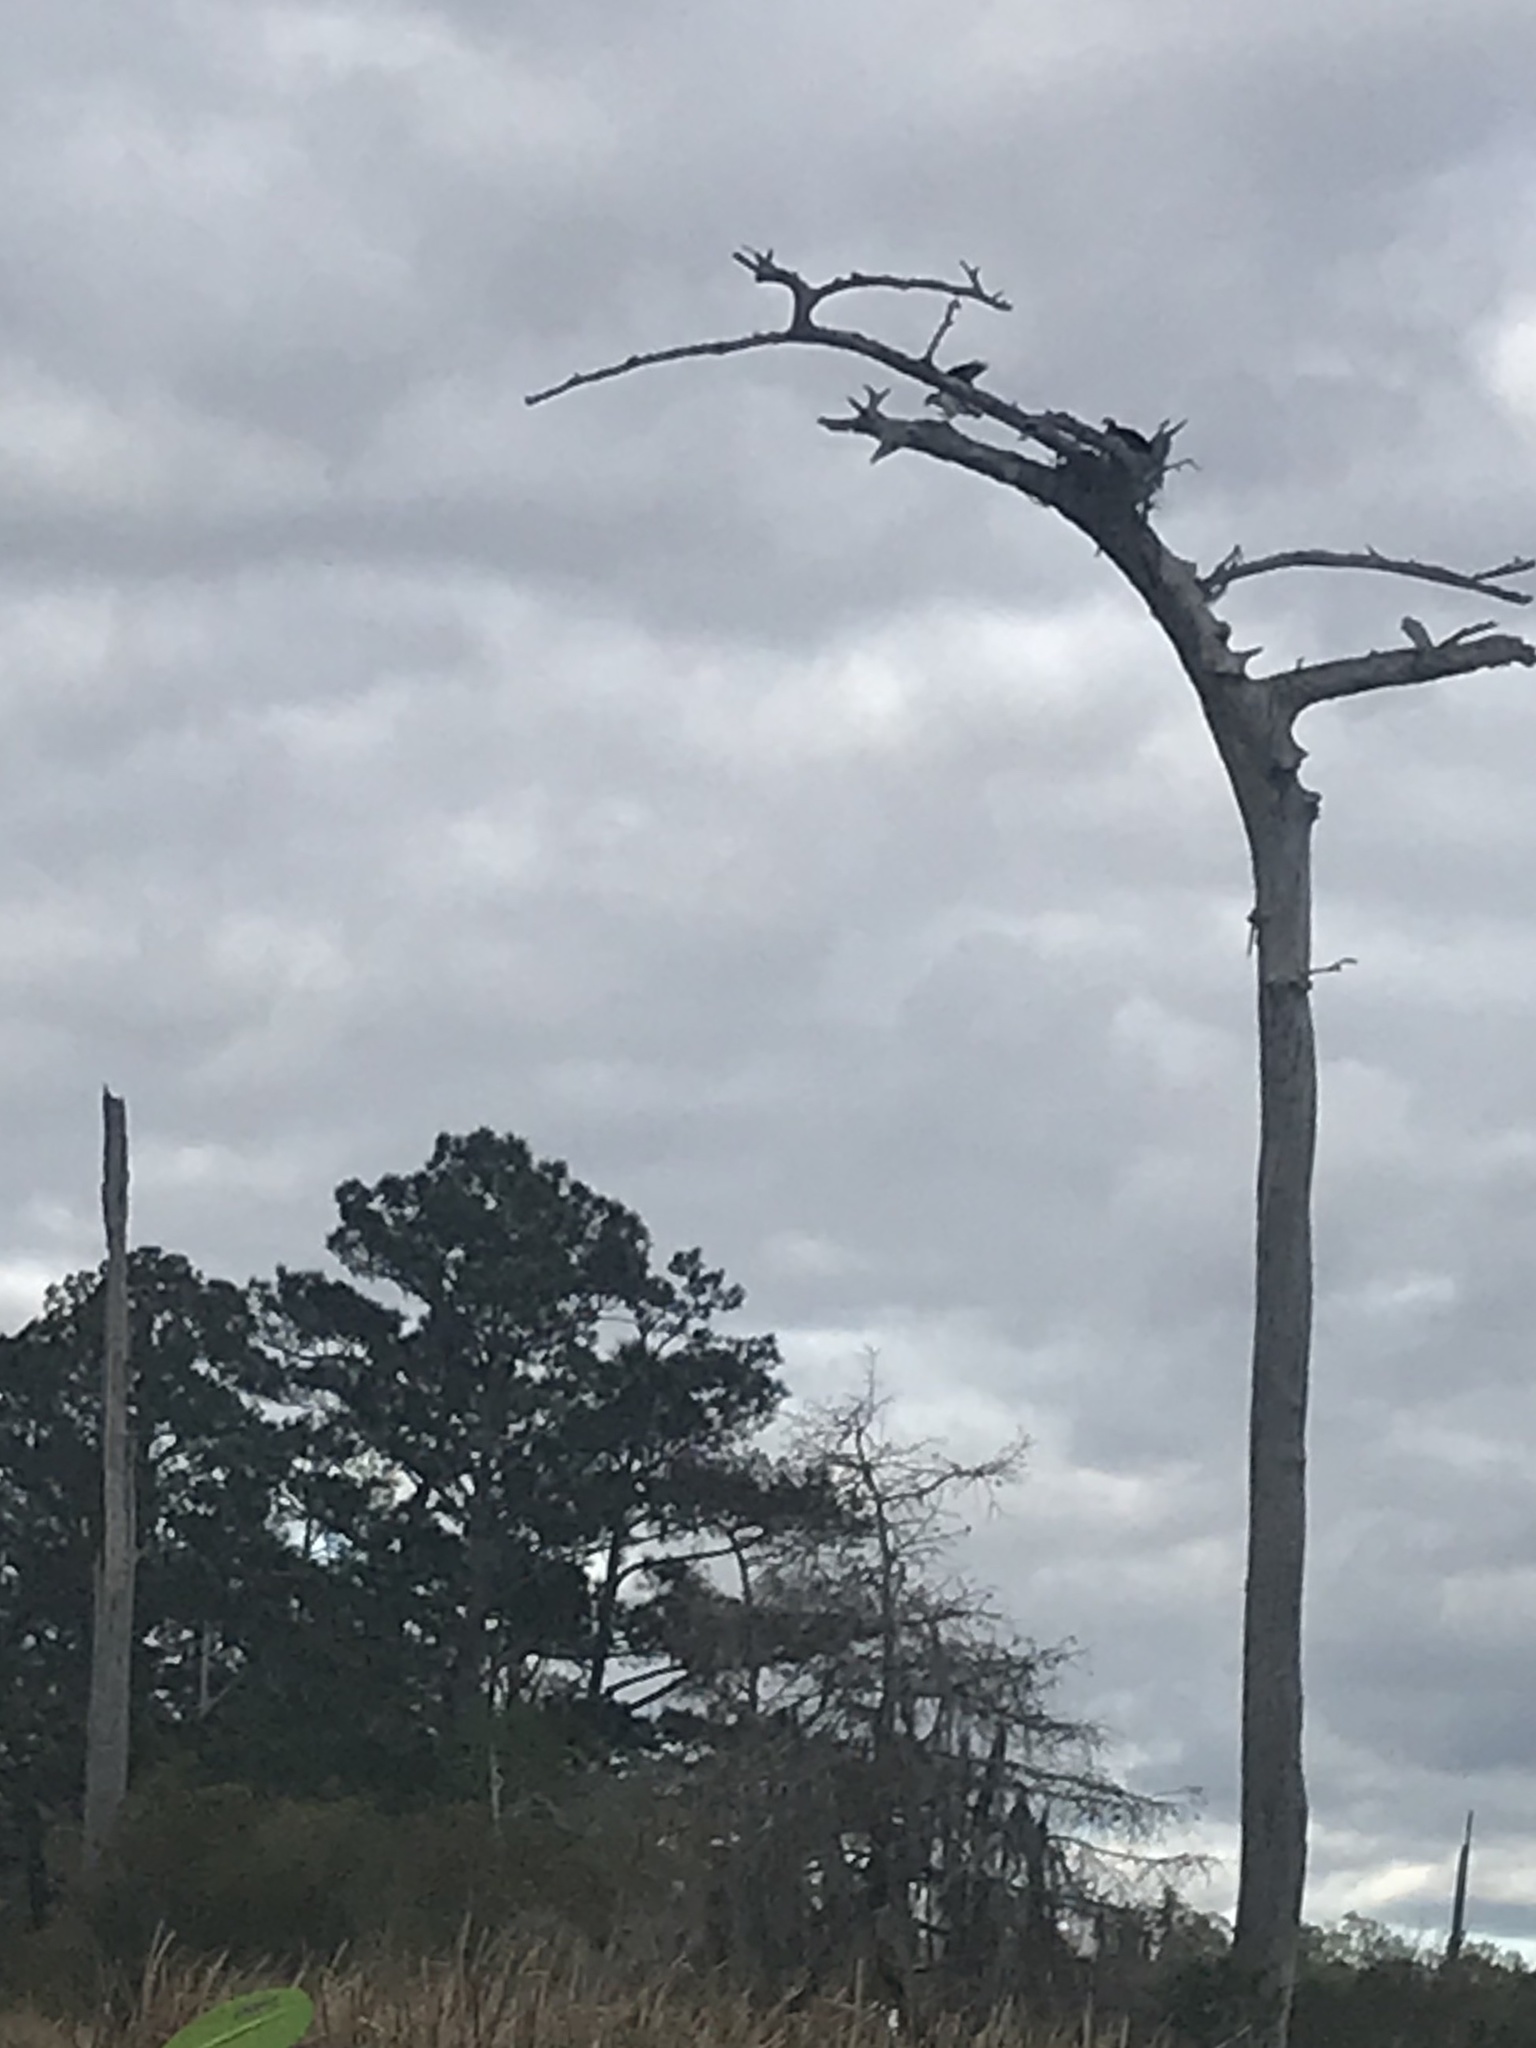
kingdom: Animalia
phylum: Chordata
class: Aves
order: Accipitriformes
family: Pandionidae
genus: Pandion
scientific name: Pandion haliaetus
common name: Osprey
